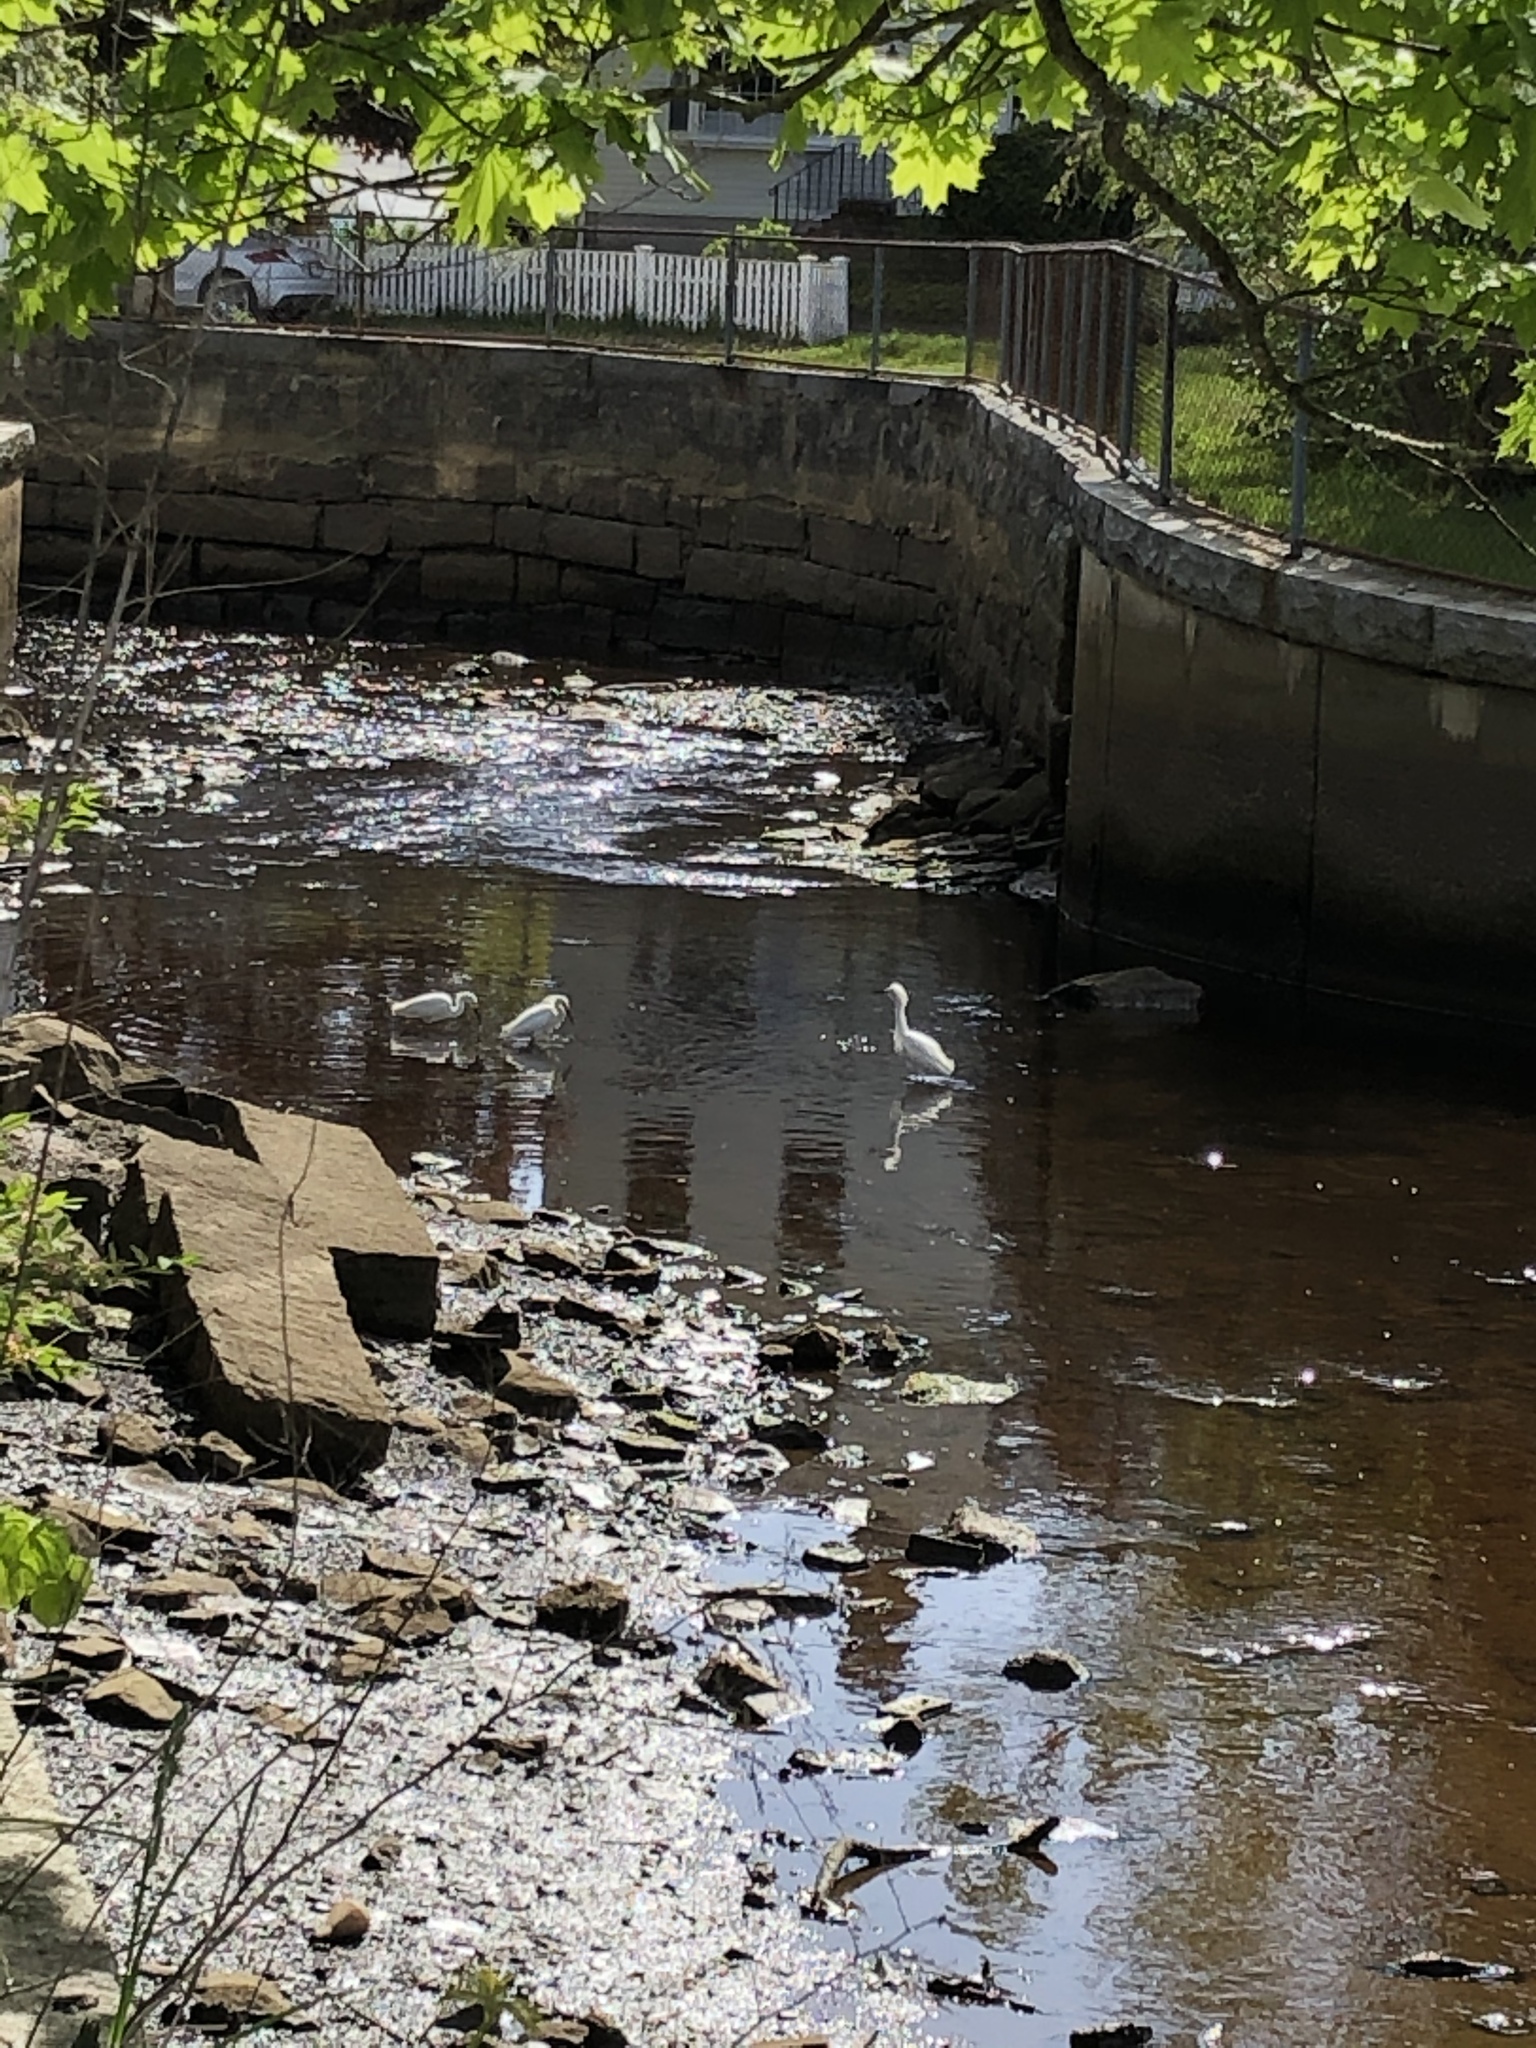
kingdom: Animalia
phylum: Chordata
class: Aves
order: Pelecaniformes
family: Ardeidae
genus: Egretta
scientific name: Egretta thula
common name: Snowy egret
